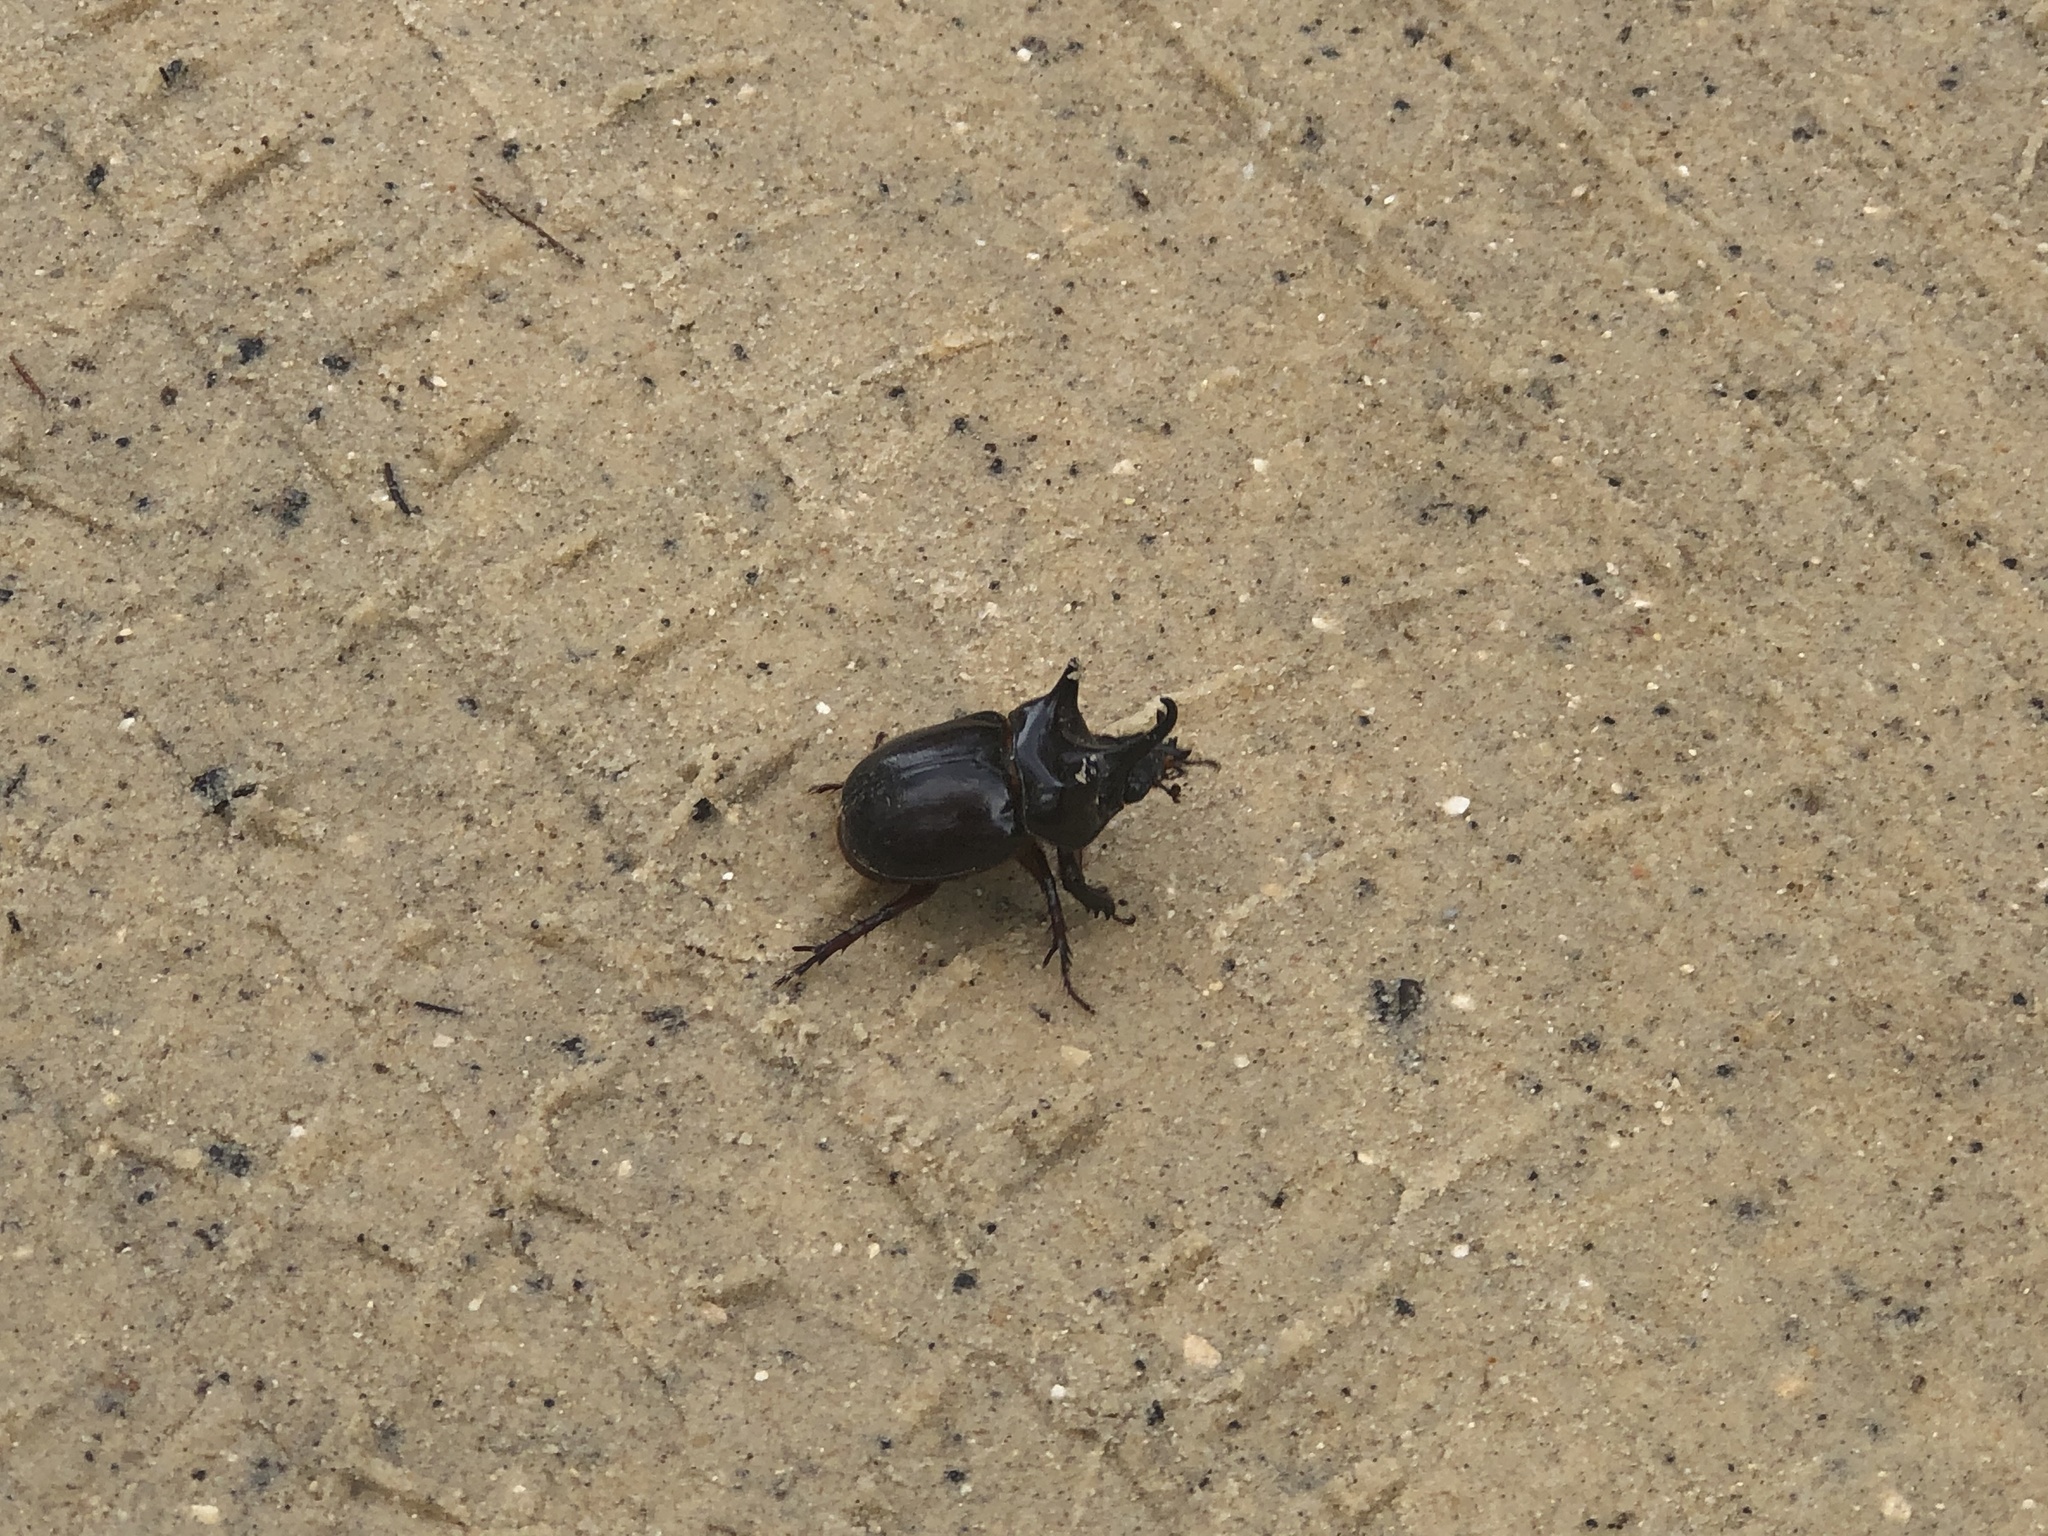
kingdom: Animalia
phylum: Arthropoda
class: Insecta
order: Coleoptera
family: Scarabaeidae
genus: Strategus
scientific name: Strategus antaeus
